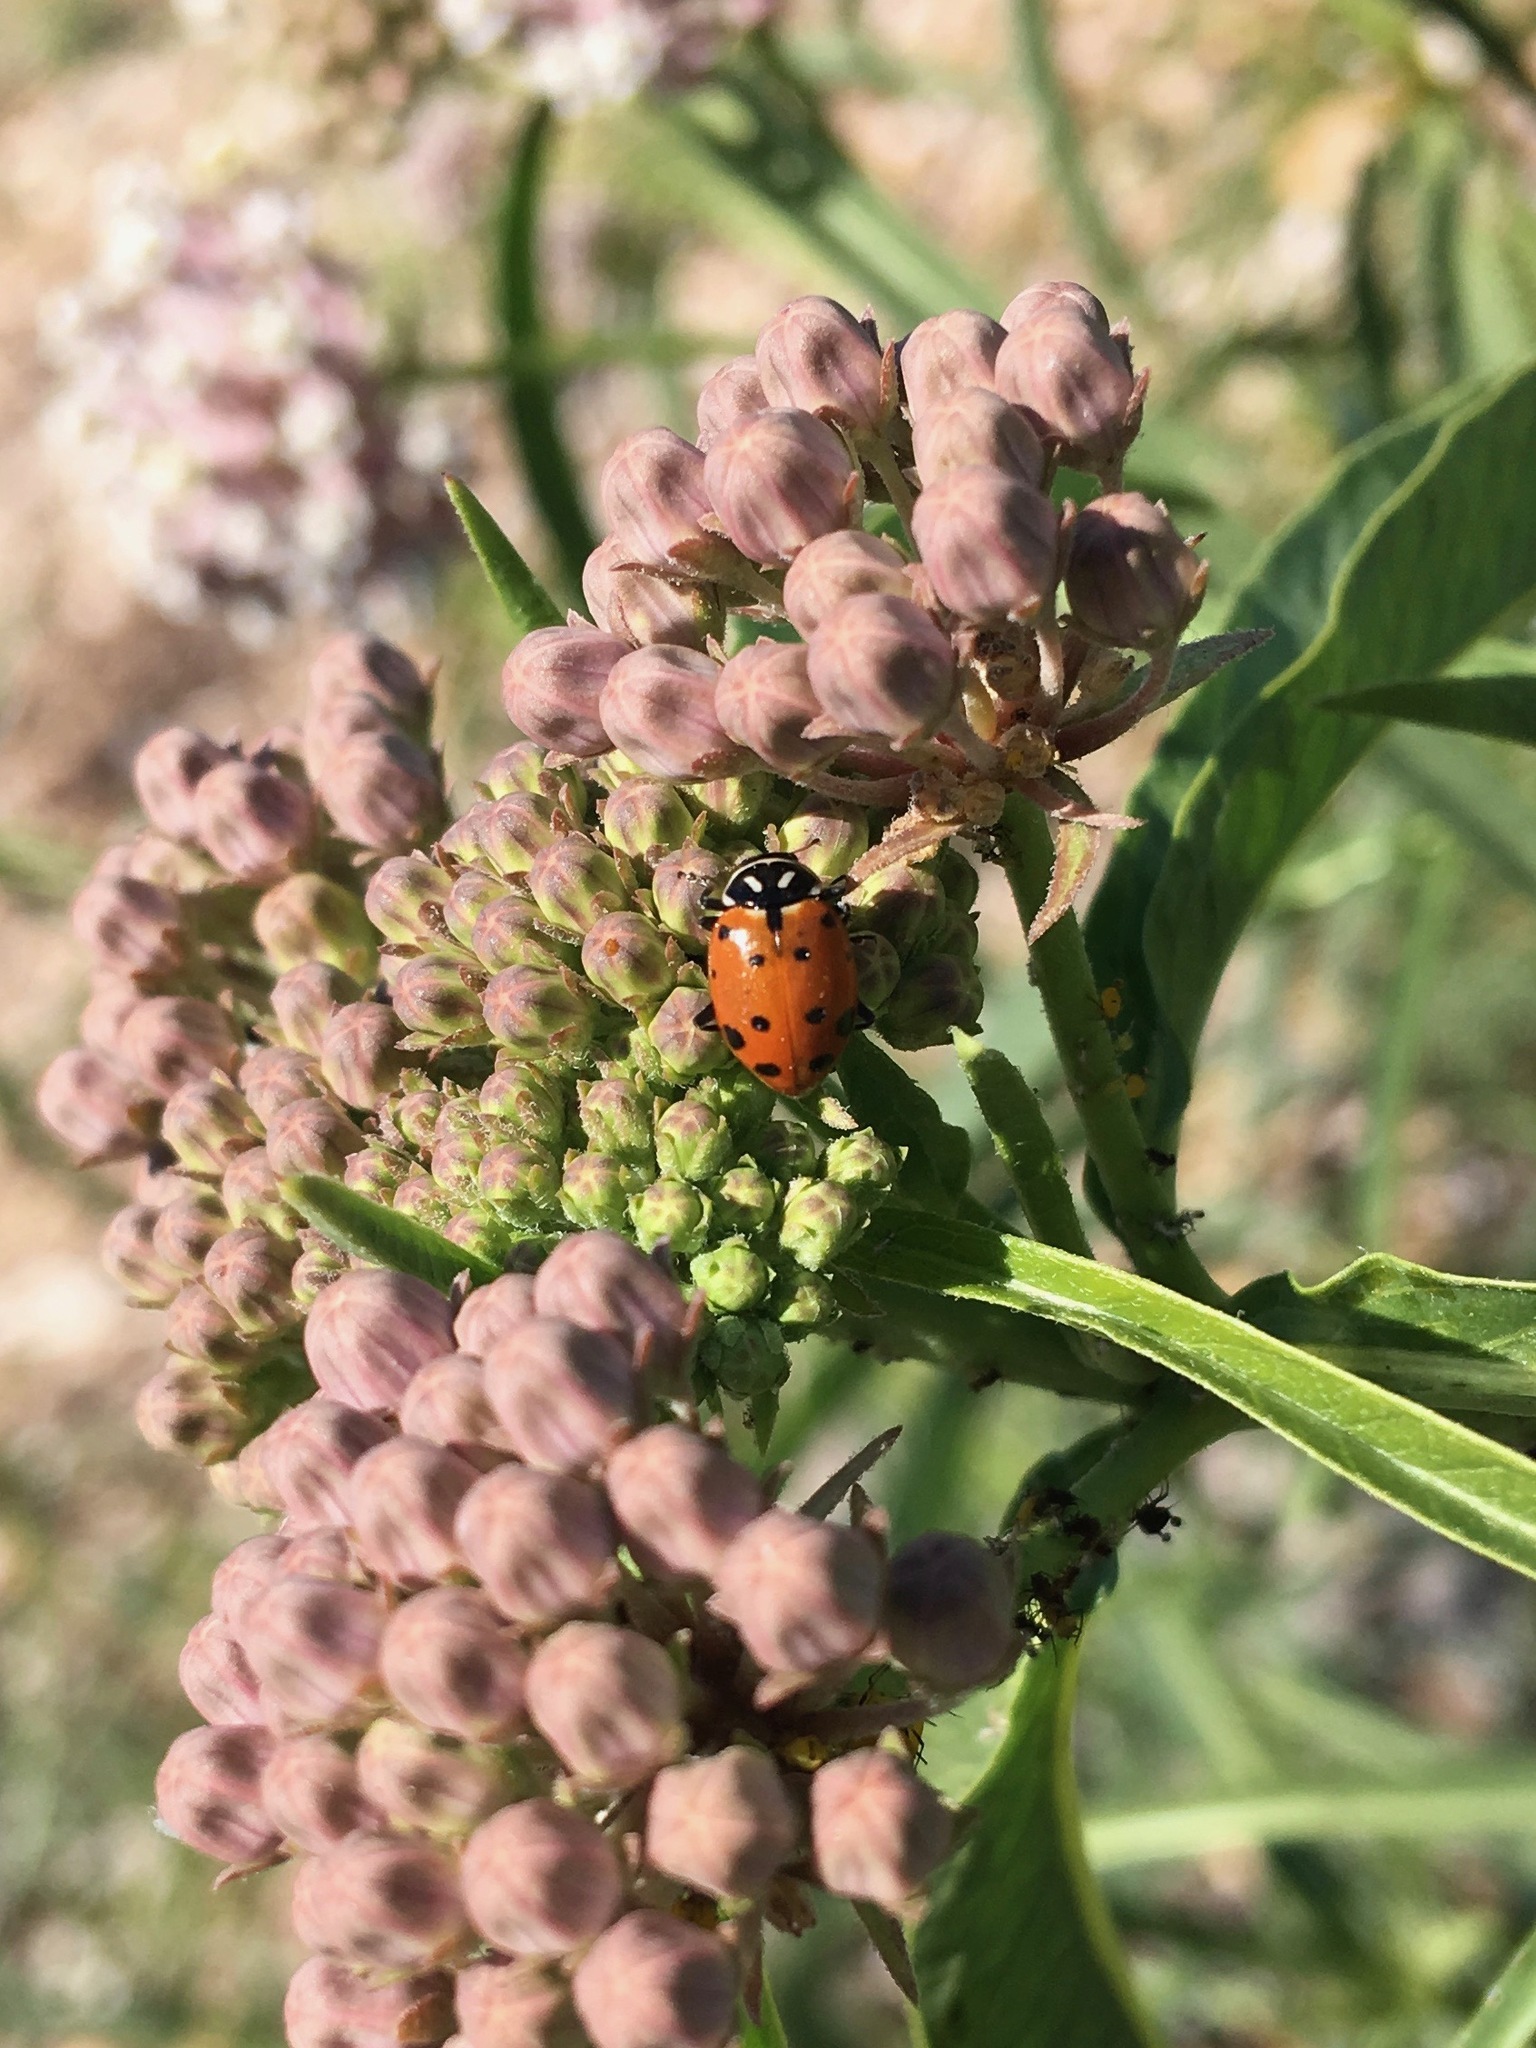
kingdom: Animalia
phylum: Arthropoda
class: Insecta
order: Coleoptera
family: Coccinellidae
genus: Hippodamia
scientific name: Hippodamia convergens
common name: Convergent lady beetle
